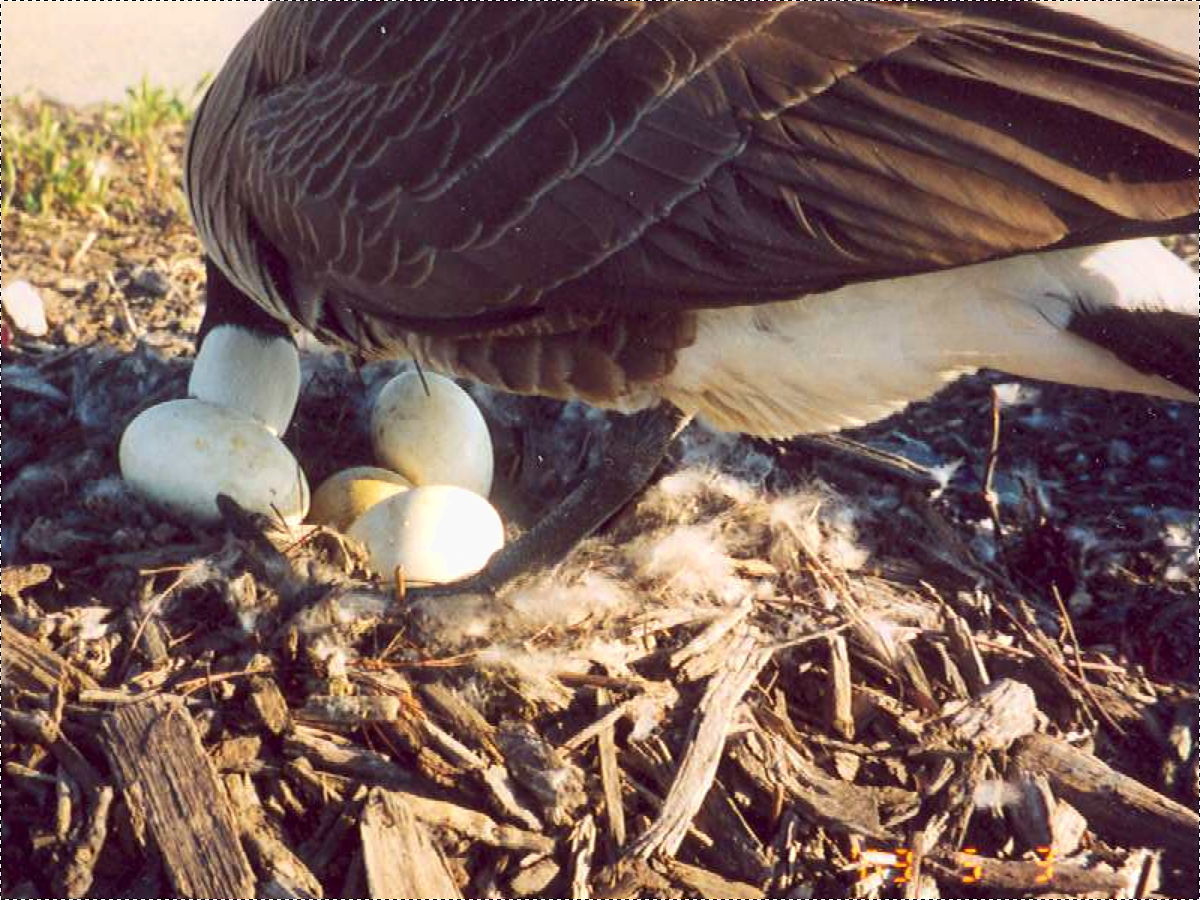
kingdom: Animalia
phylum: Chordata
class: Aves
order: Anseriformes
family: Anatidae
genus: Branta
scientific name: Branta canadensis
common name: Canada goose
